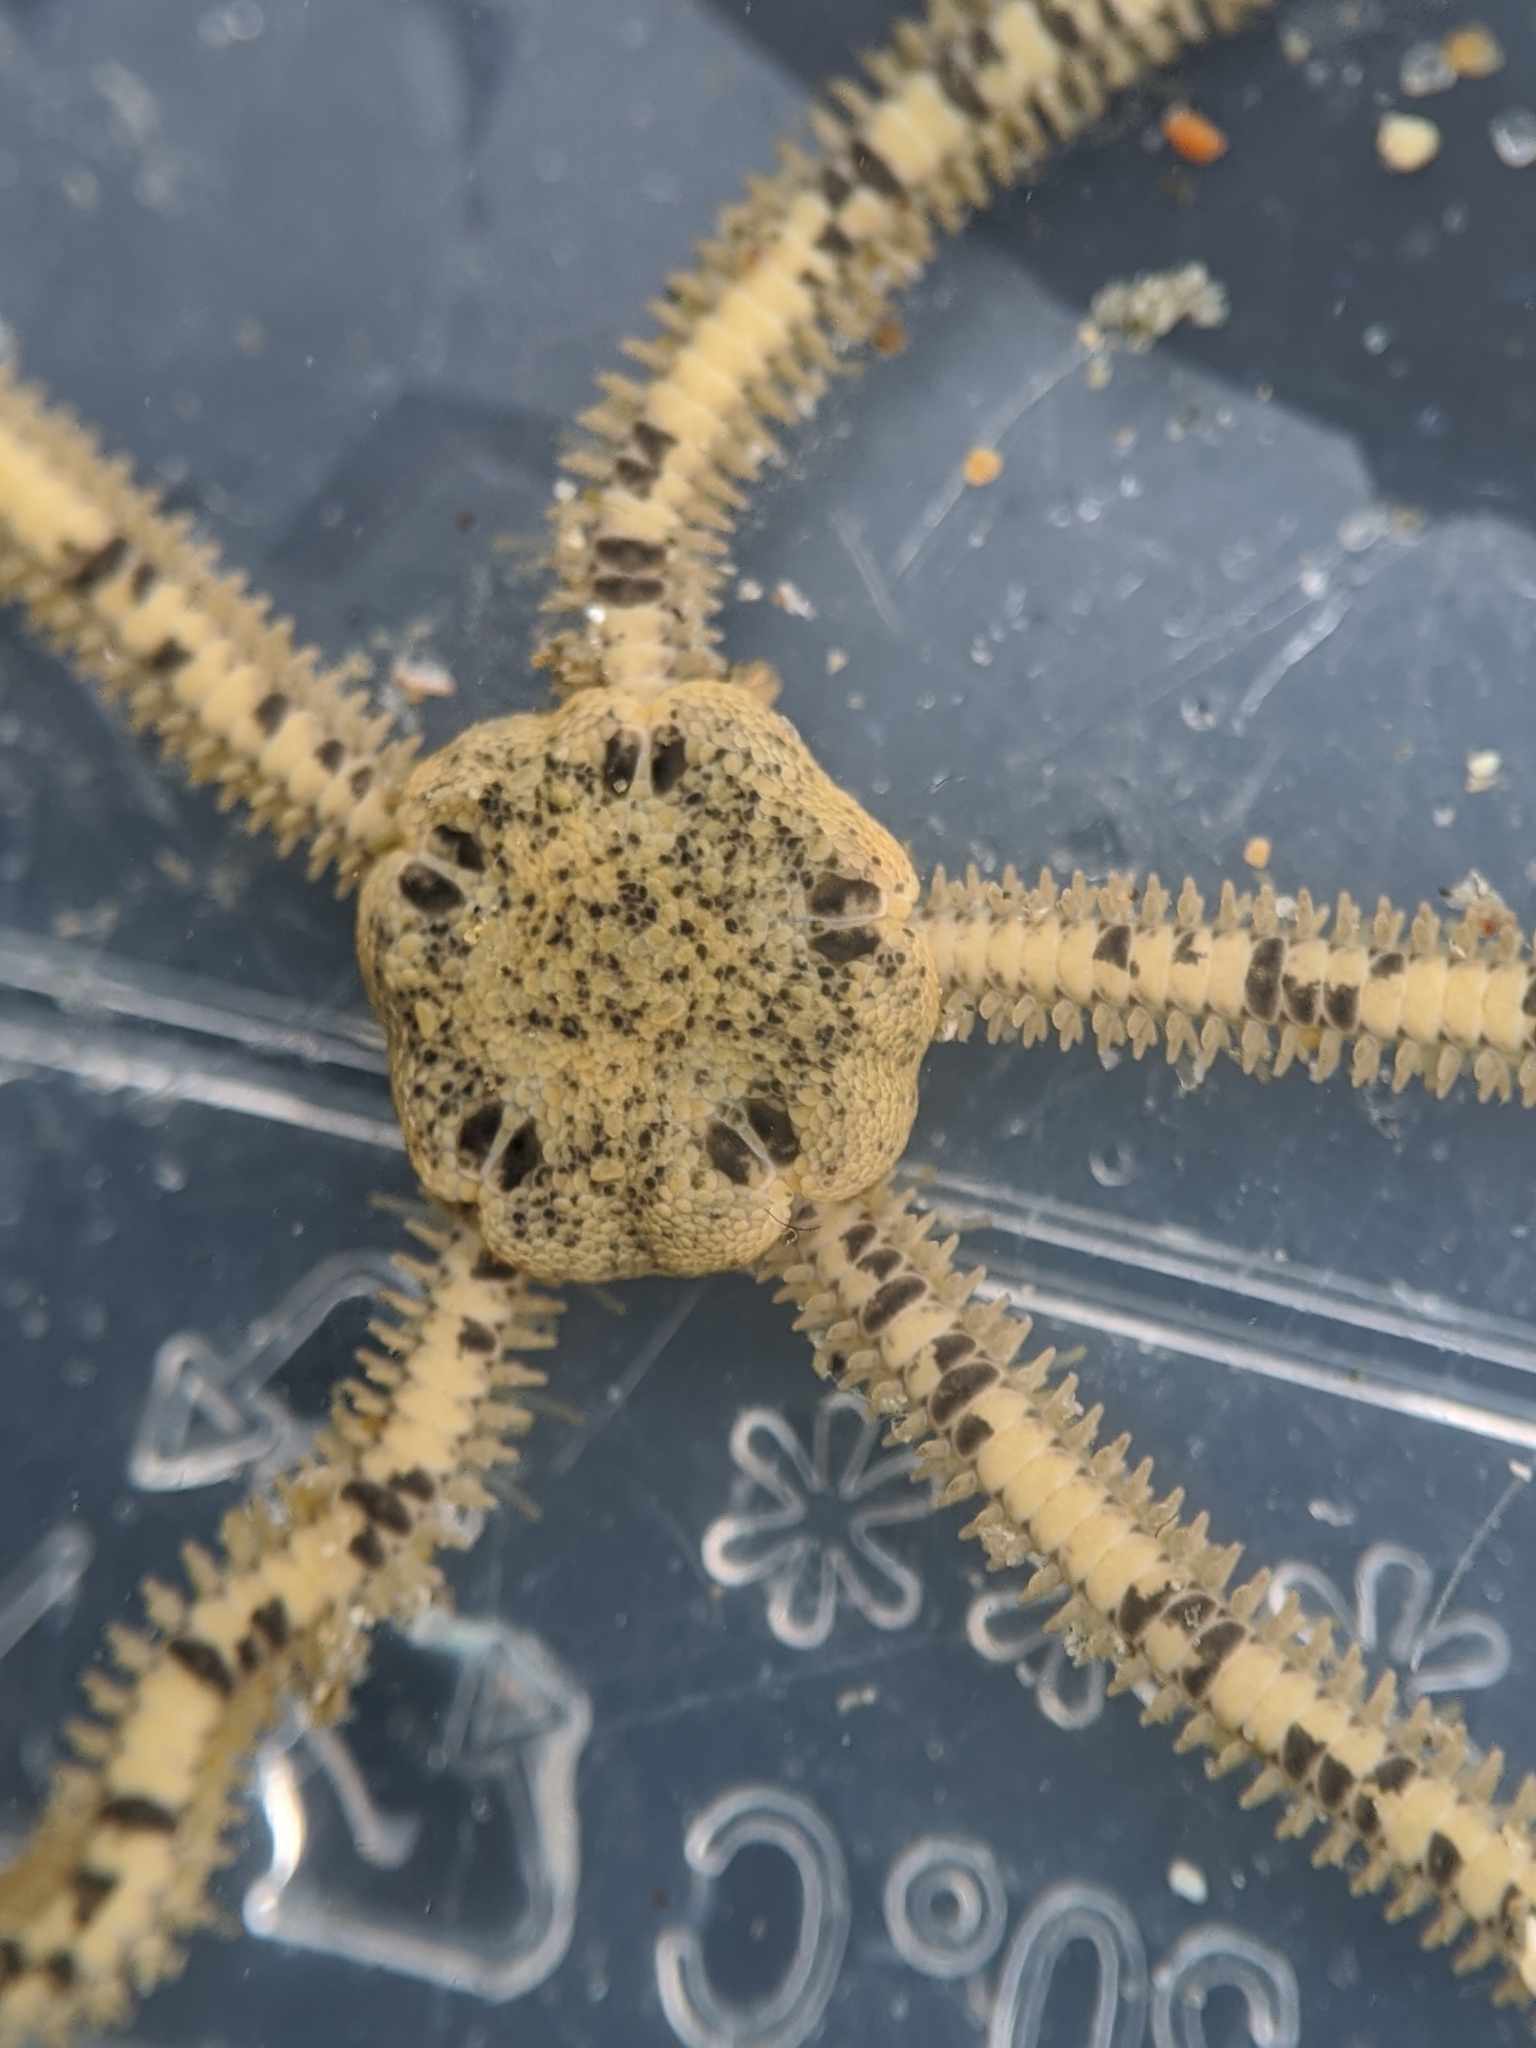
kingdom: Animalia
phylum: Echinodermata
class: Ophiuroidea
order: Amphilepidida
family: Amphiuridae
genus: Amphiodia
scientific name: Amphiodia occidentalis
